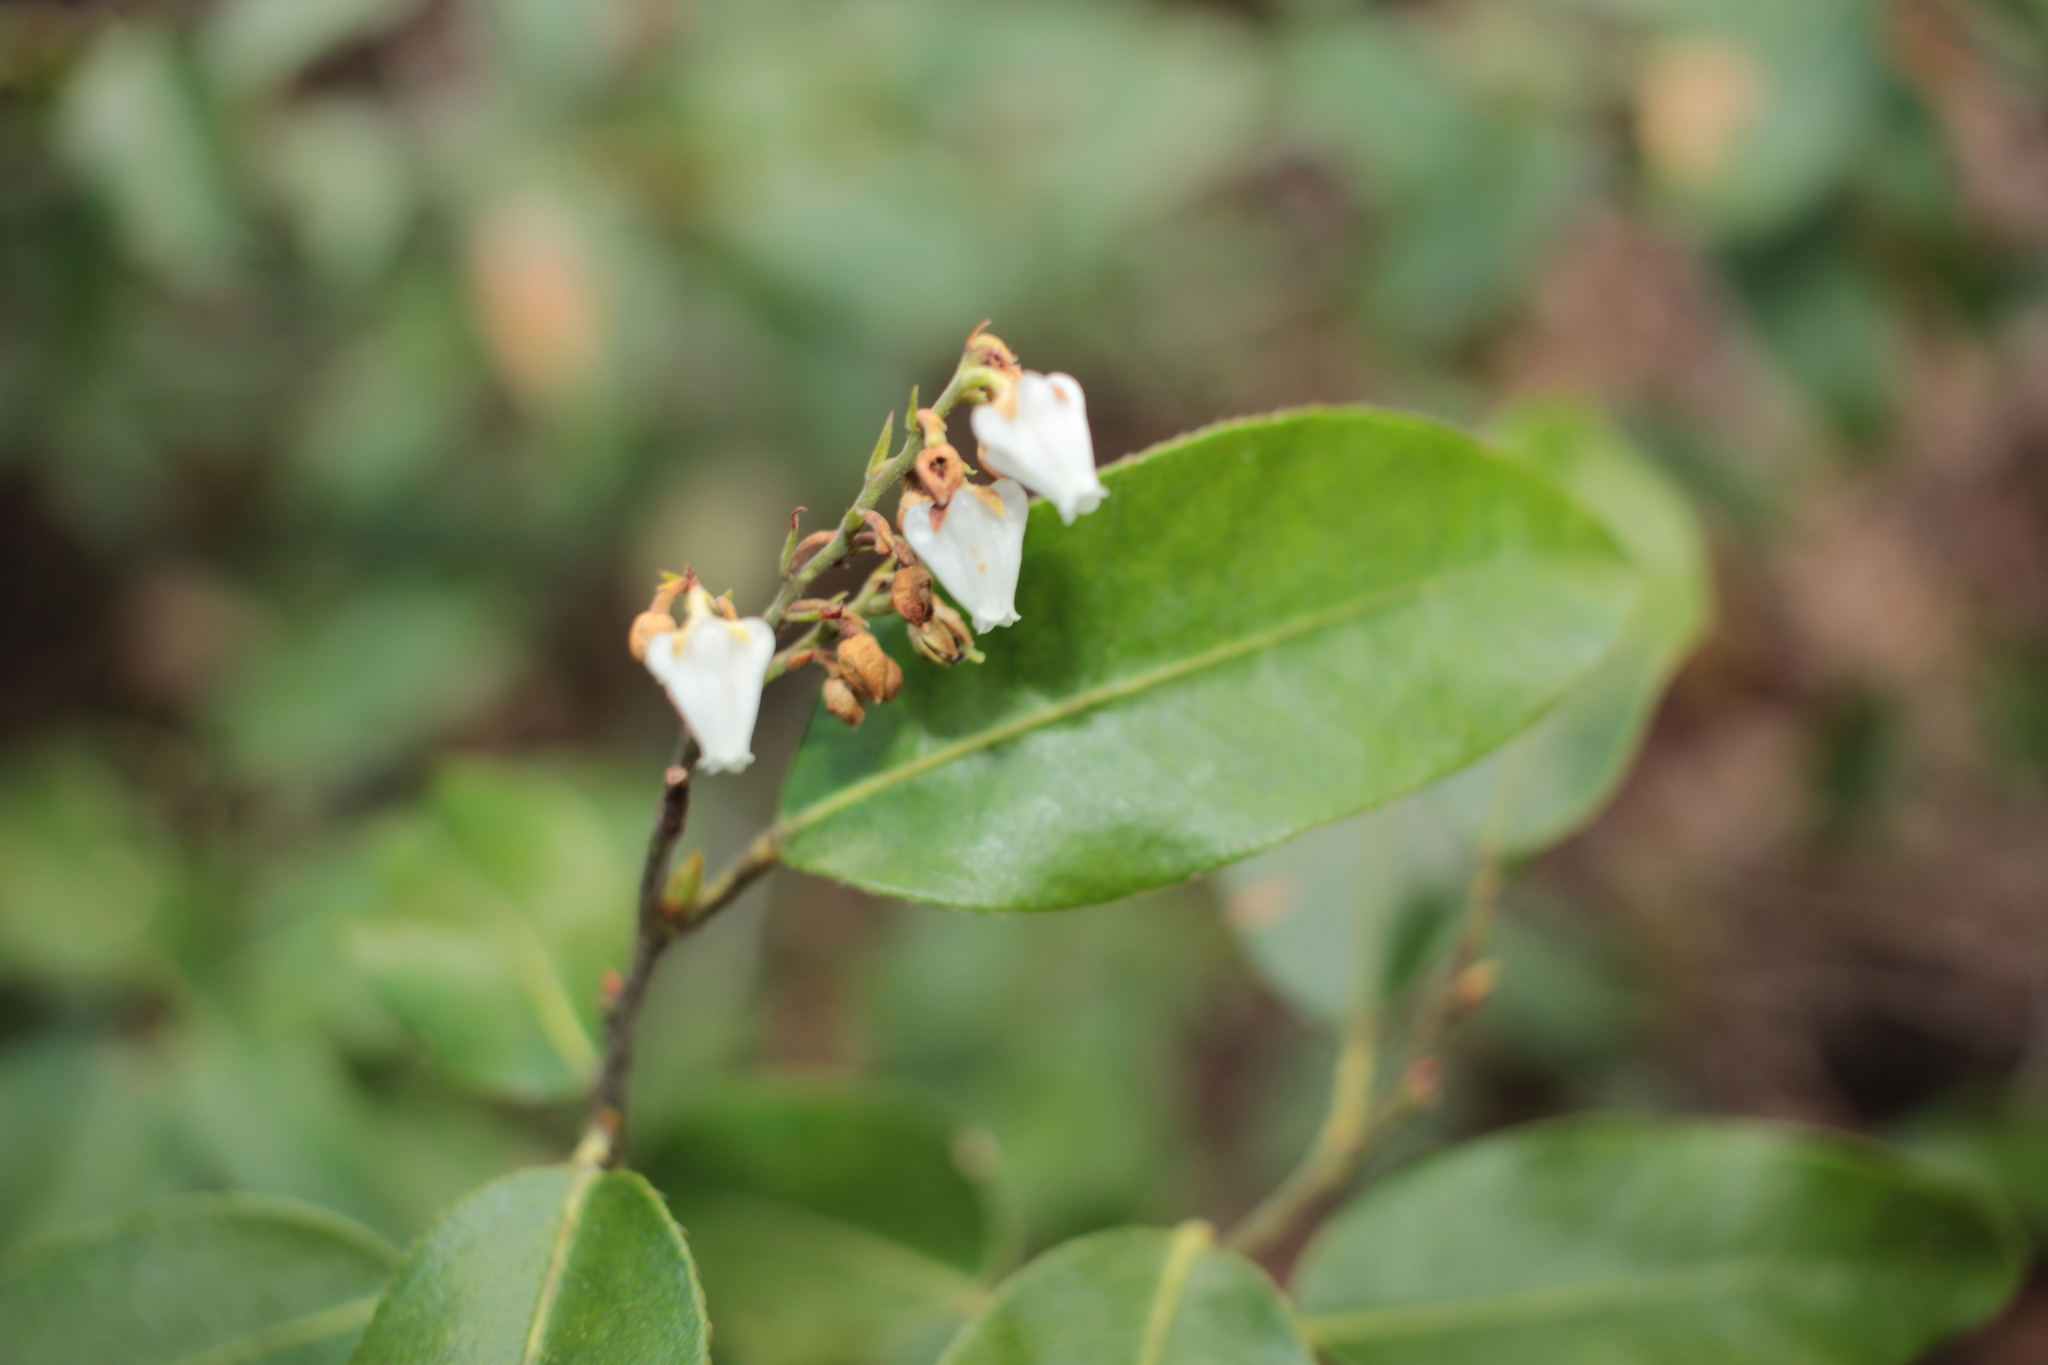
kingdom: Plantae
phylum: Tracheophyta
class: Magnoliopsida
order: Ericales
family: Ericaceae
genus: Pieris
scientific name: Pieris floribunda
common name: Flutterbush
